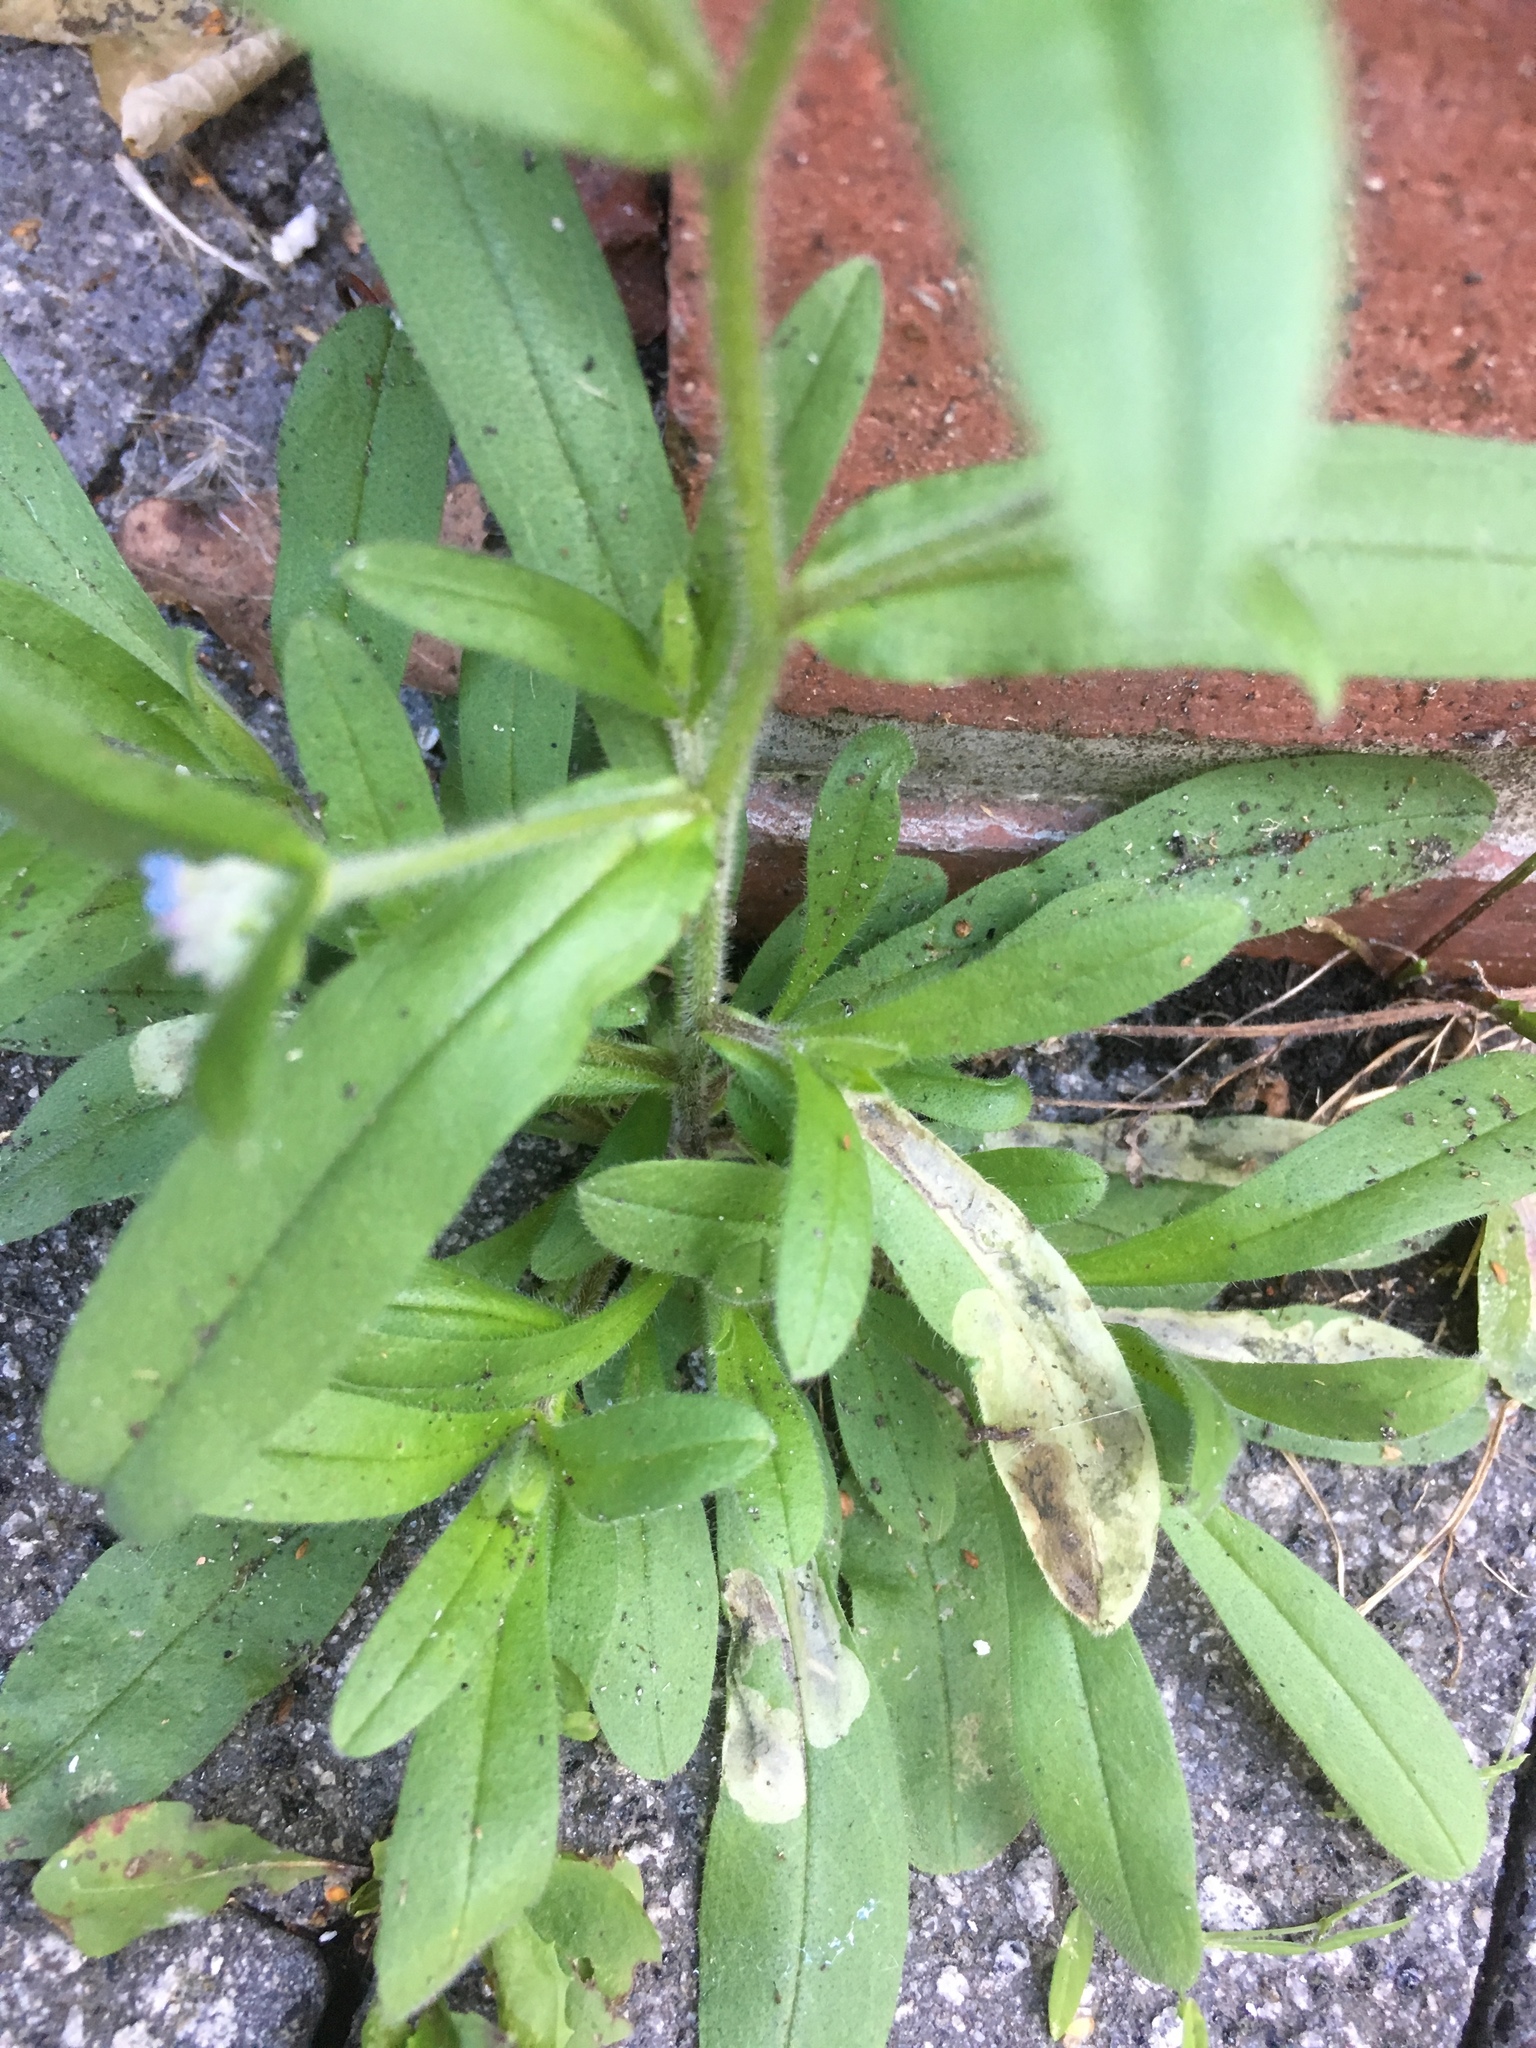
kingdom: Plantae
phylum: Tracheophyta
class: Magnoliopsida
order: Boraginales
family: Boraginaceae
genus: Myosotis
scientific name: Myosotis arvensis
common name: Field forget-me-not
